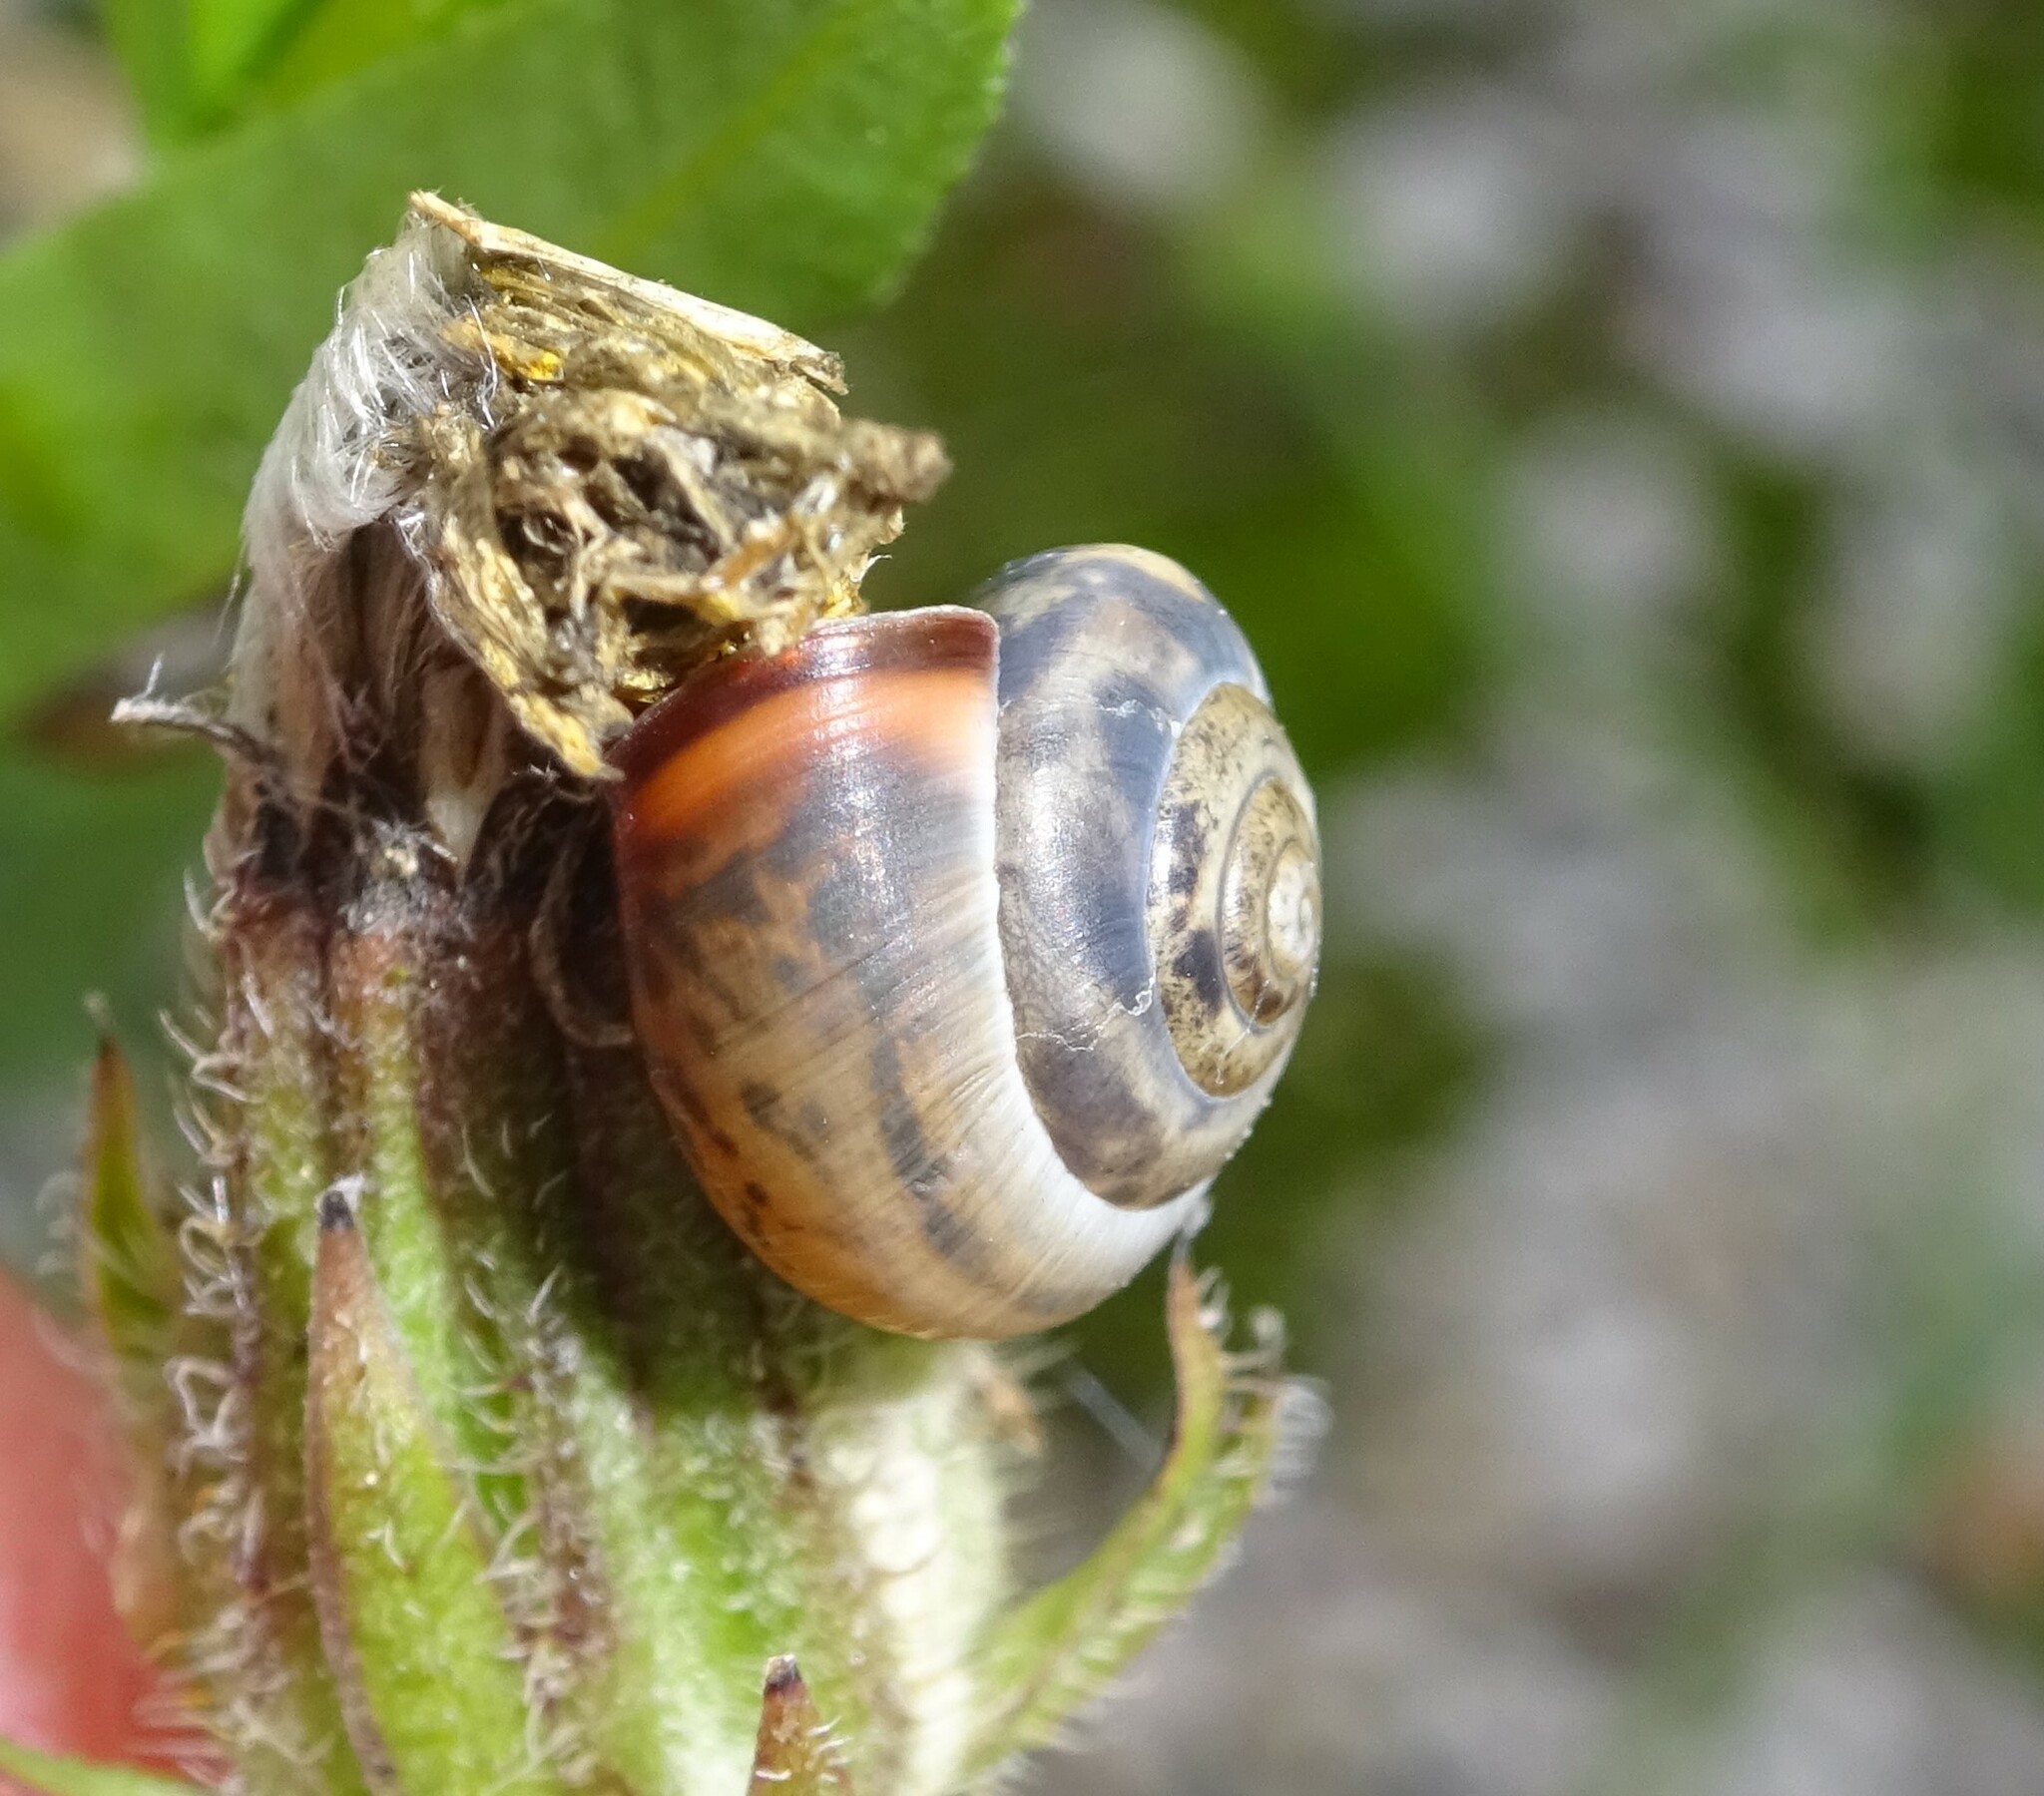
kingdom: Animalia
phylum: Mollusca
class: Gastropoda
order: Stylommatophora
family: Hygromiidae
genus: Monacha
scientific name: Monacha cartusiana
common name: Carthusian snail
